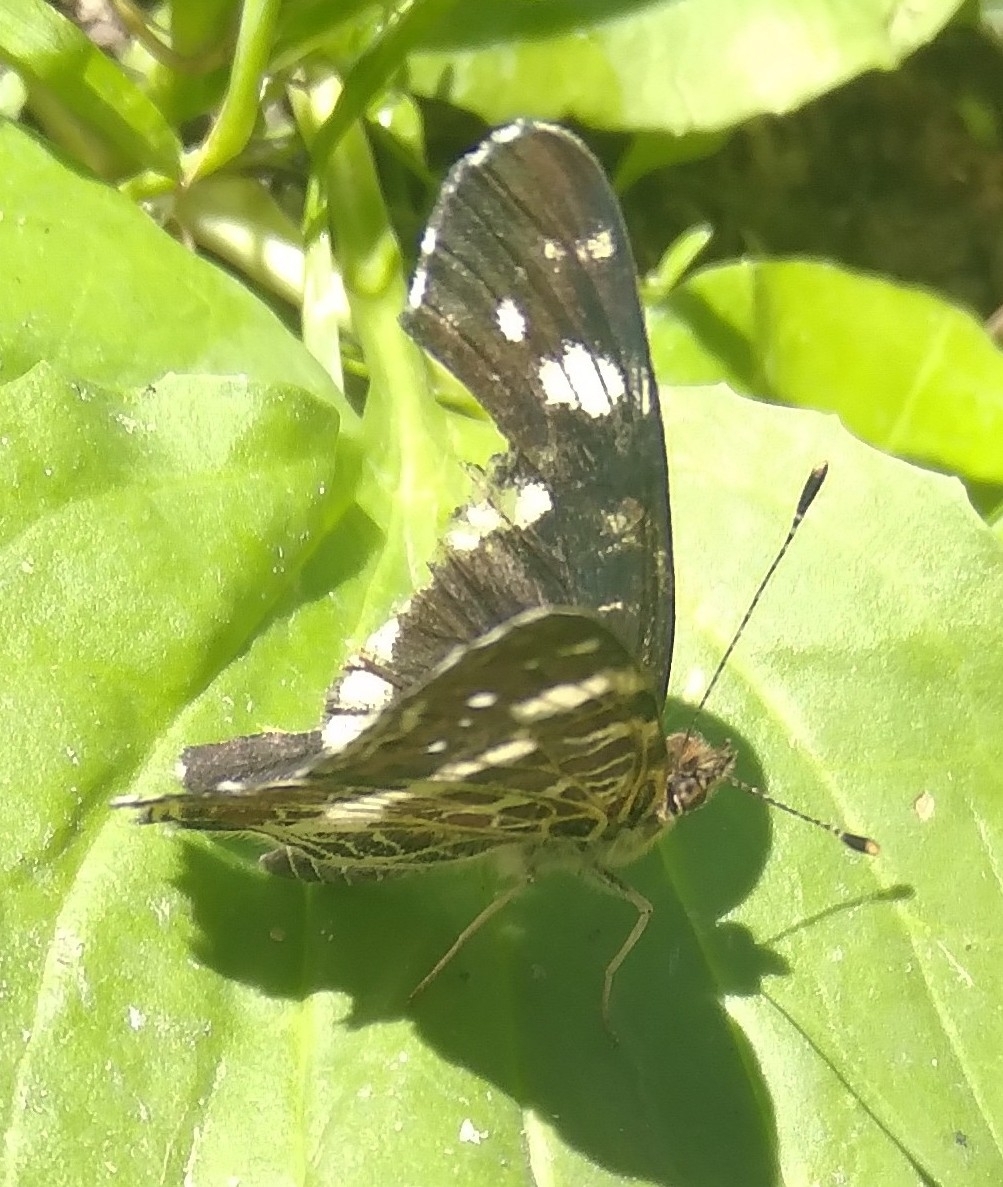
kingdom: Animalia
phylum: Arthropoda
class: Insecta
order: Lepidoptera
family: Nymphalidae
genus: Araschnia
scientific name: Araschnia levana
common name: Map butterfly
